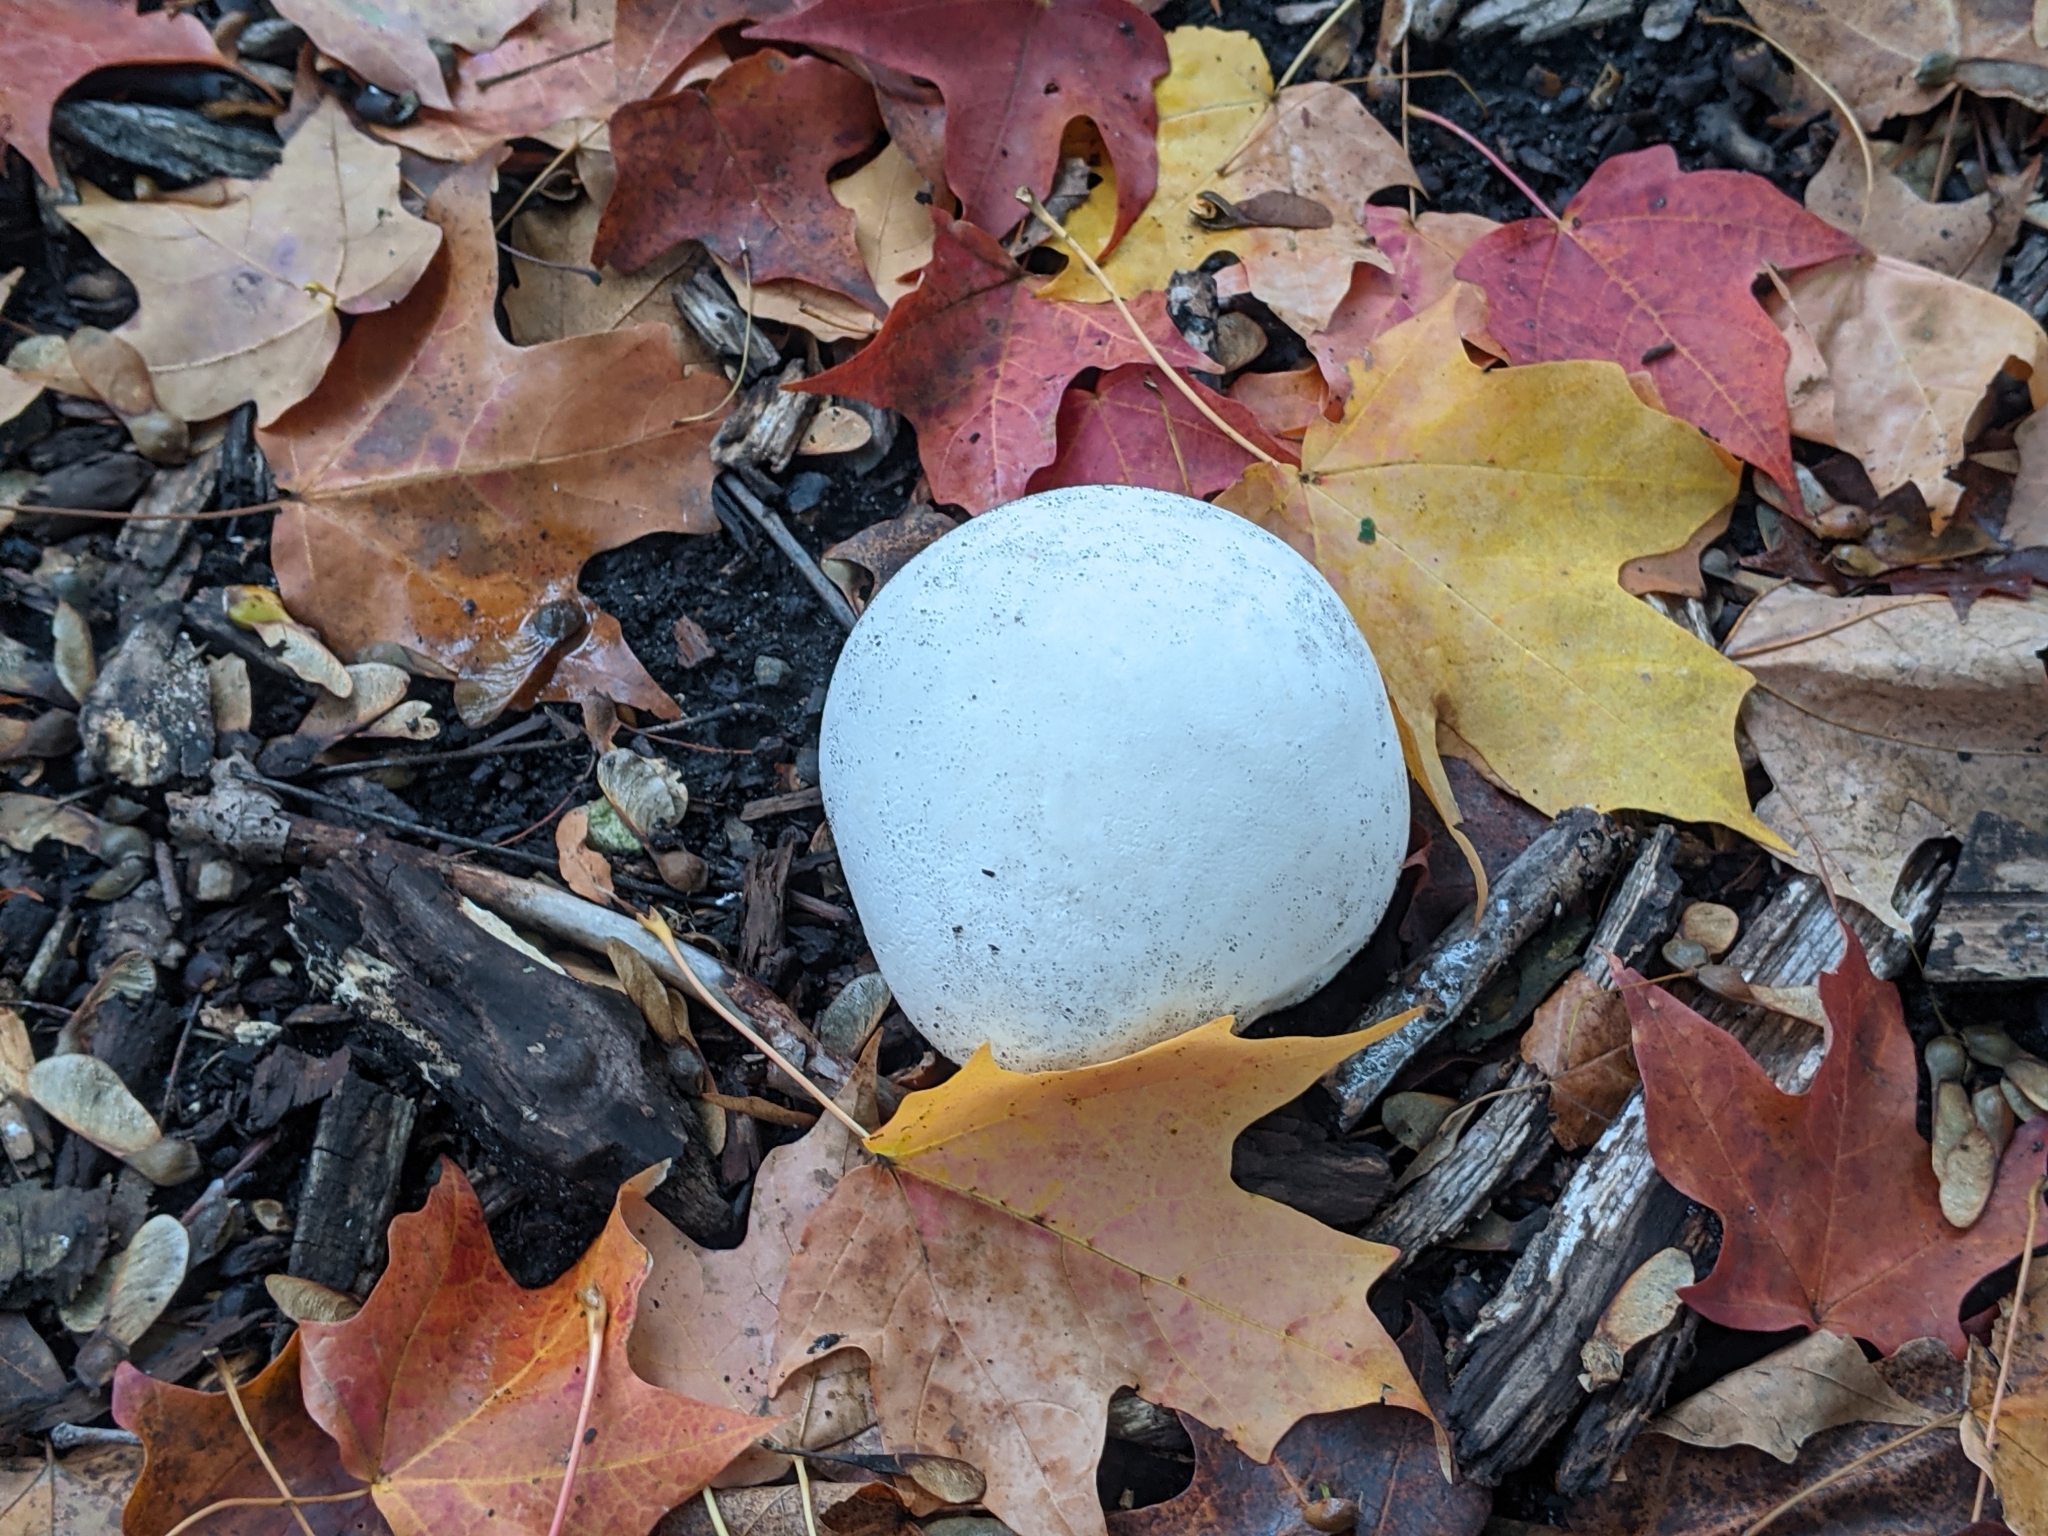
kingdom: Fungi
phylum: Basidiomycota
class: Agaricomycetes
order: Agaricales
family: Lycoperdaceae
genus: Calvatia
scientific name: Calvatia gigantea
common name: Giant puffball
